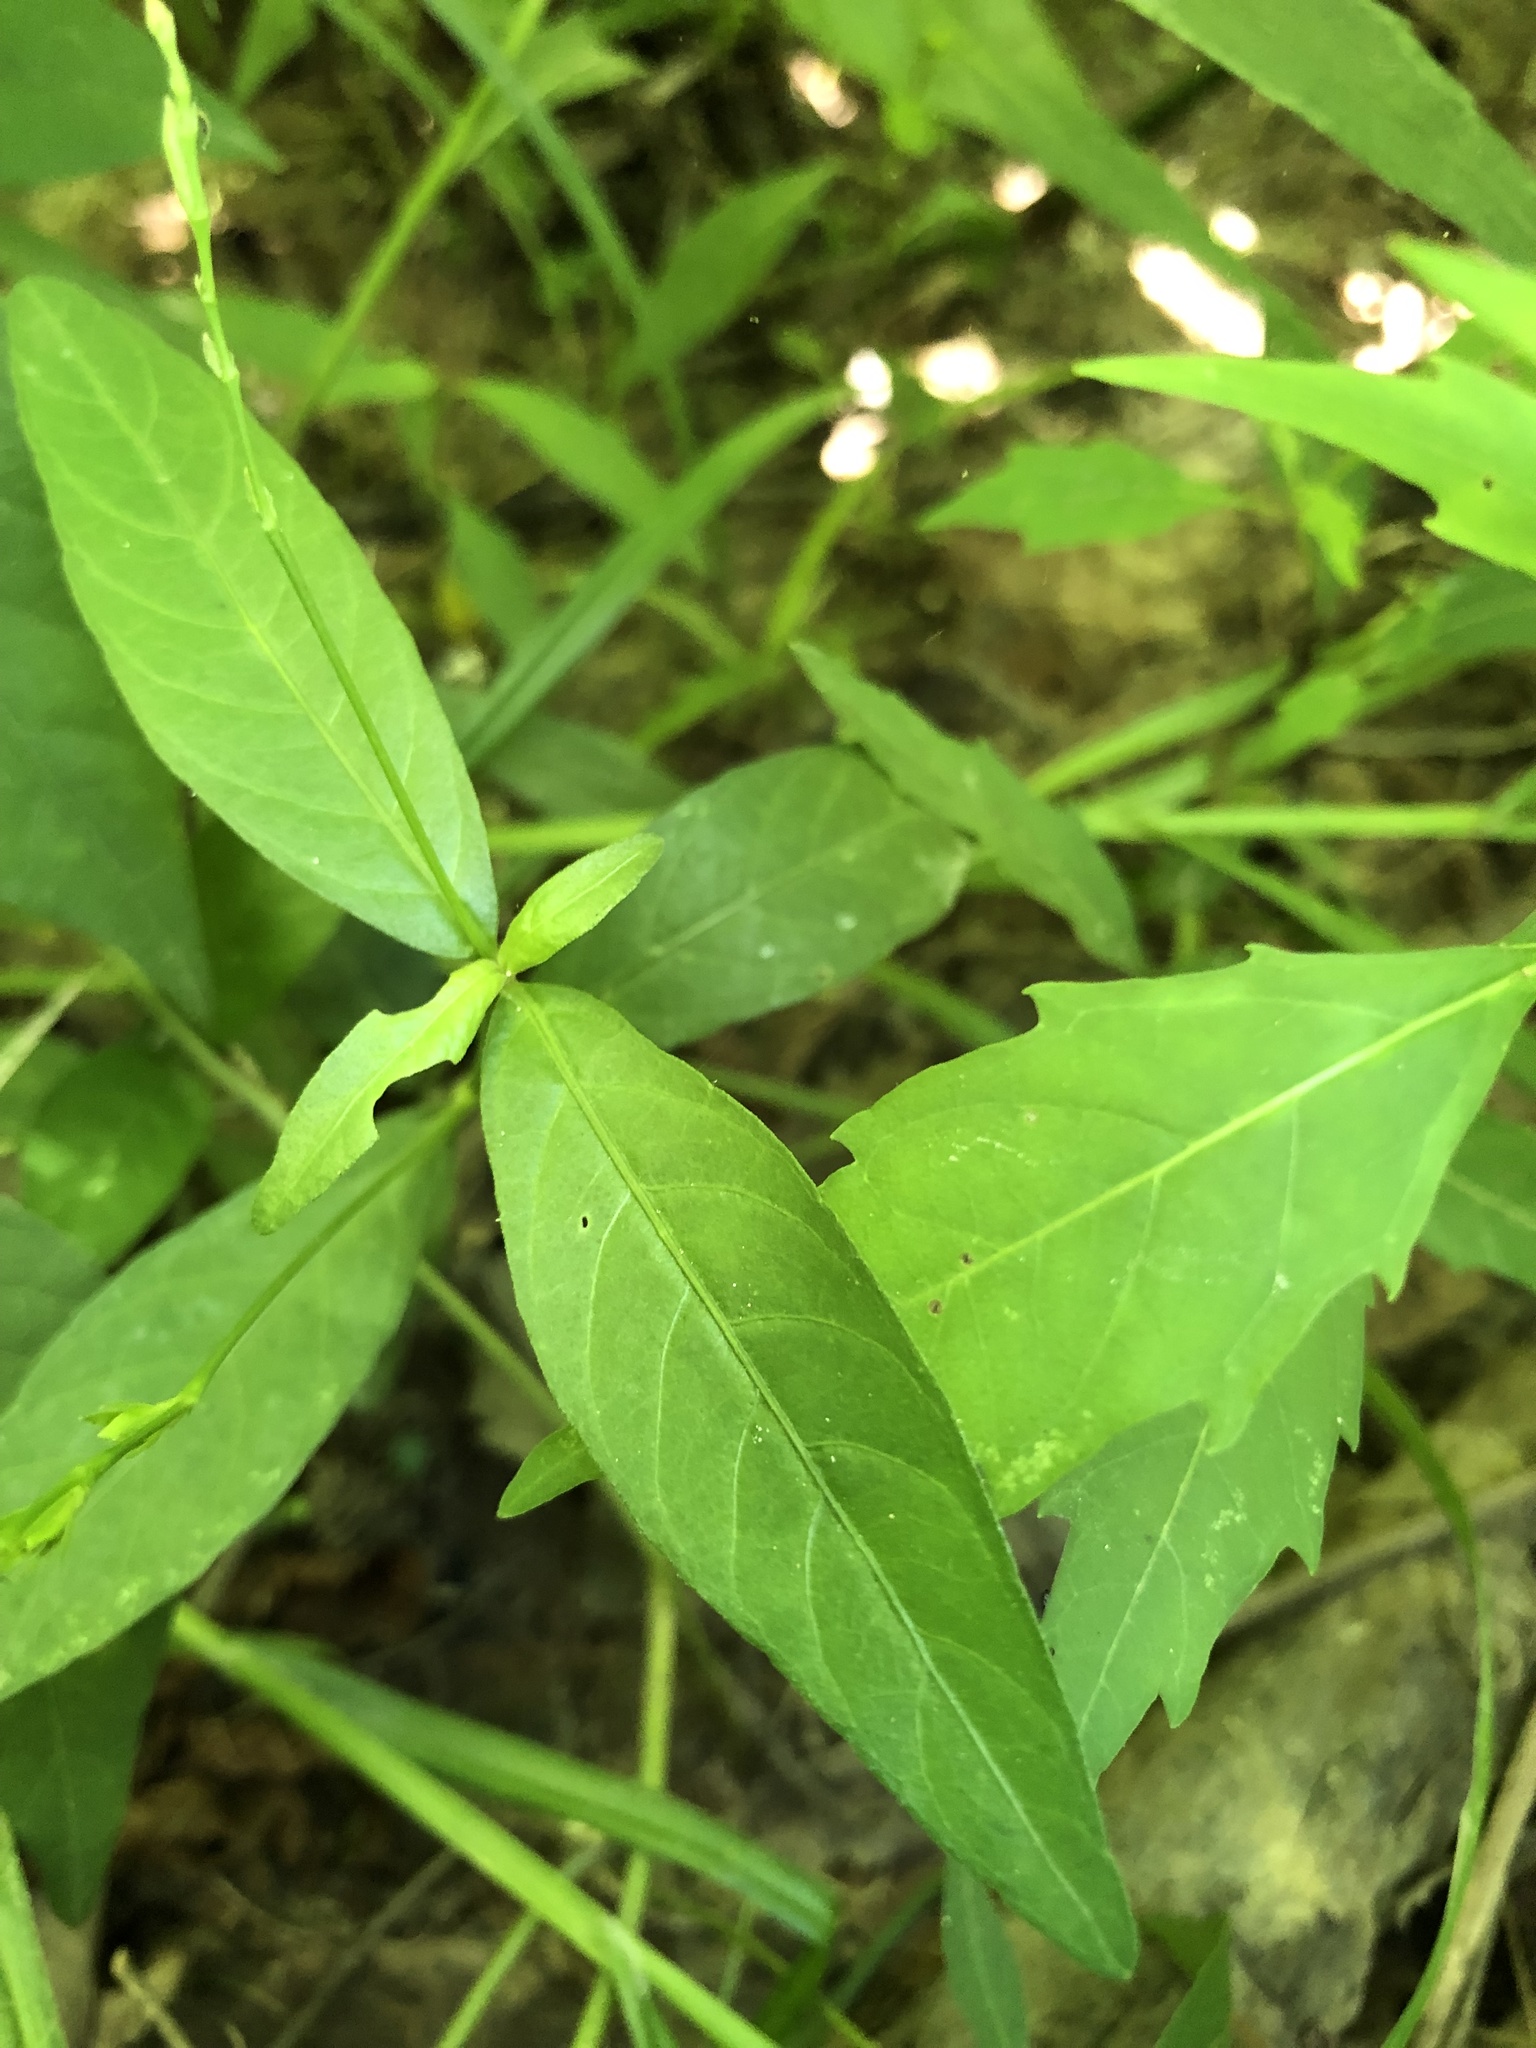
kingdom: Plantae
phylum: Tracheophyta
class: Magnoliopsida
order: Lamiales
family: Acanthaceae
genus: Justicia
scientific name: Justicia lanceolata
